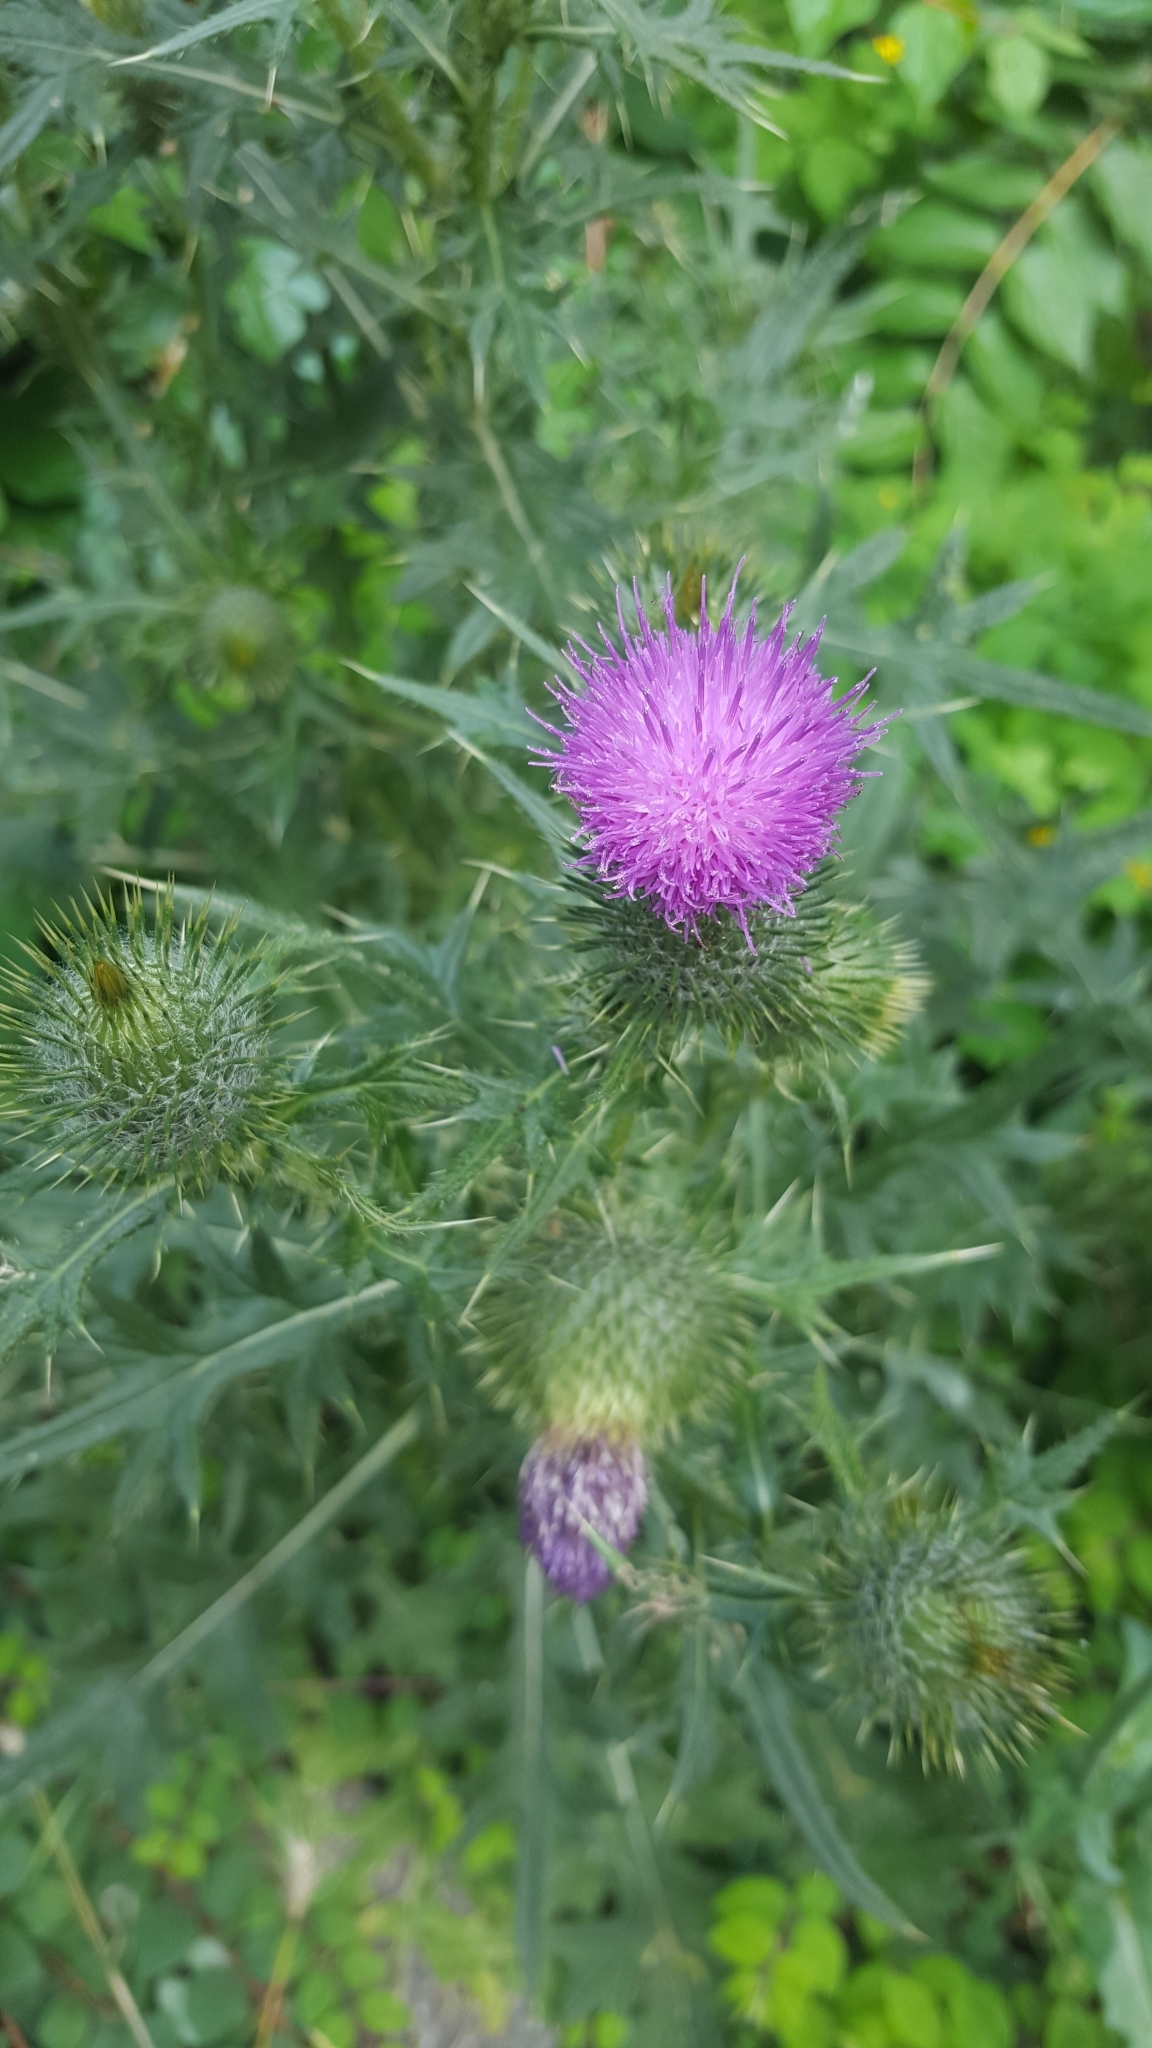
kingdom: Plantae
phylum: Tracheophyta
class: Magnoliopsida
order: Asterales
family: Asteraceae
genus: Cirsium
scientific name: Cirsium vulgare
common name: Bull thistle
